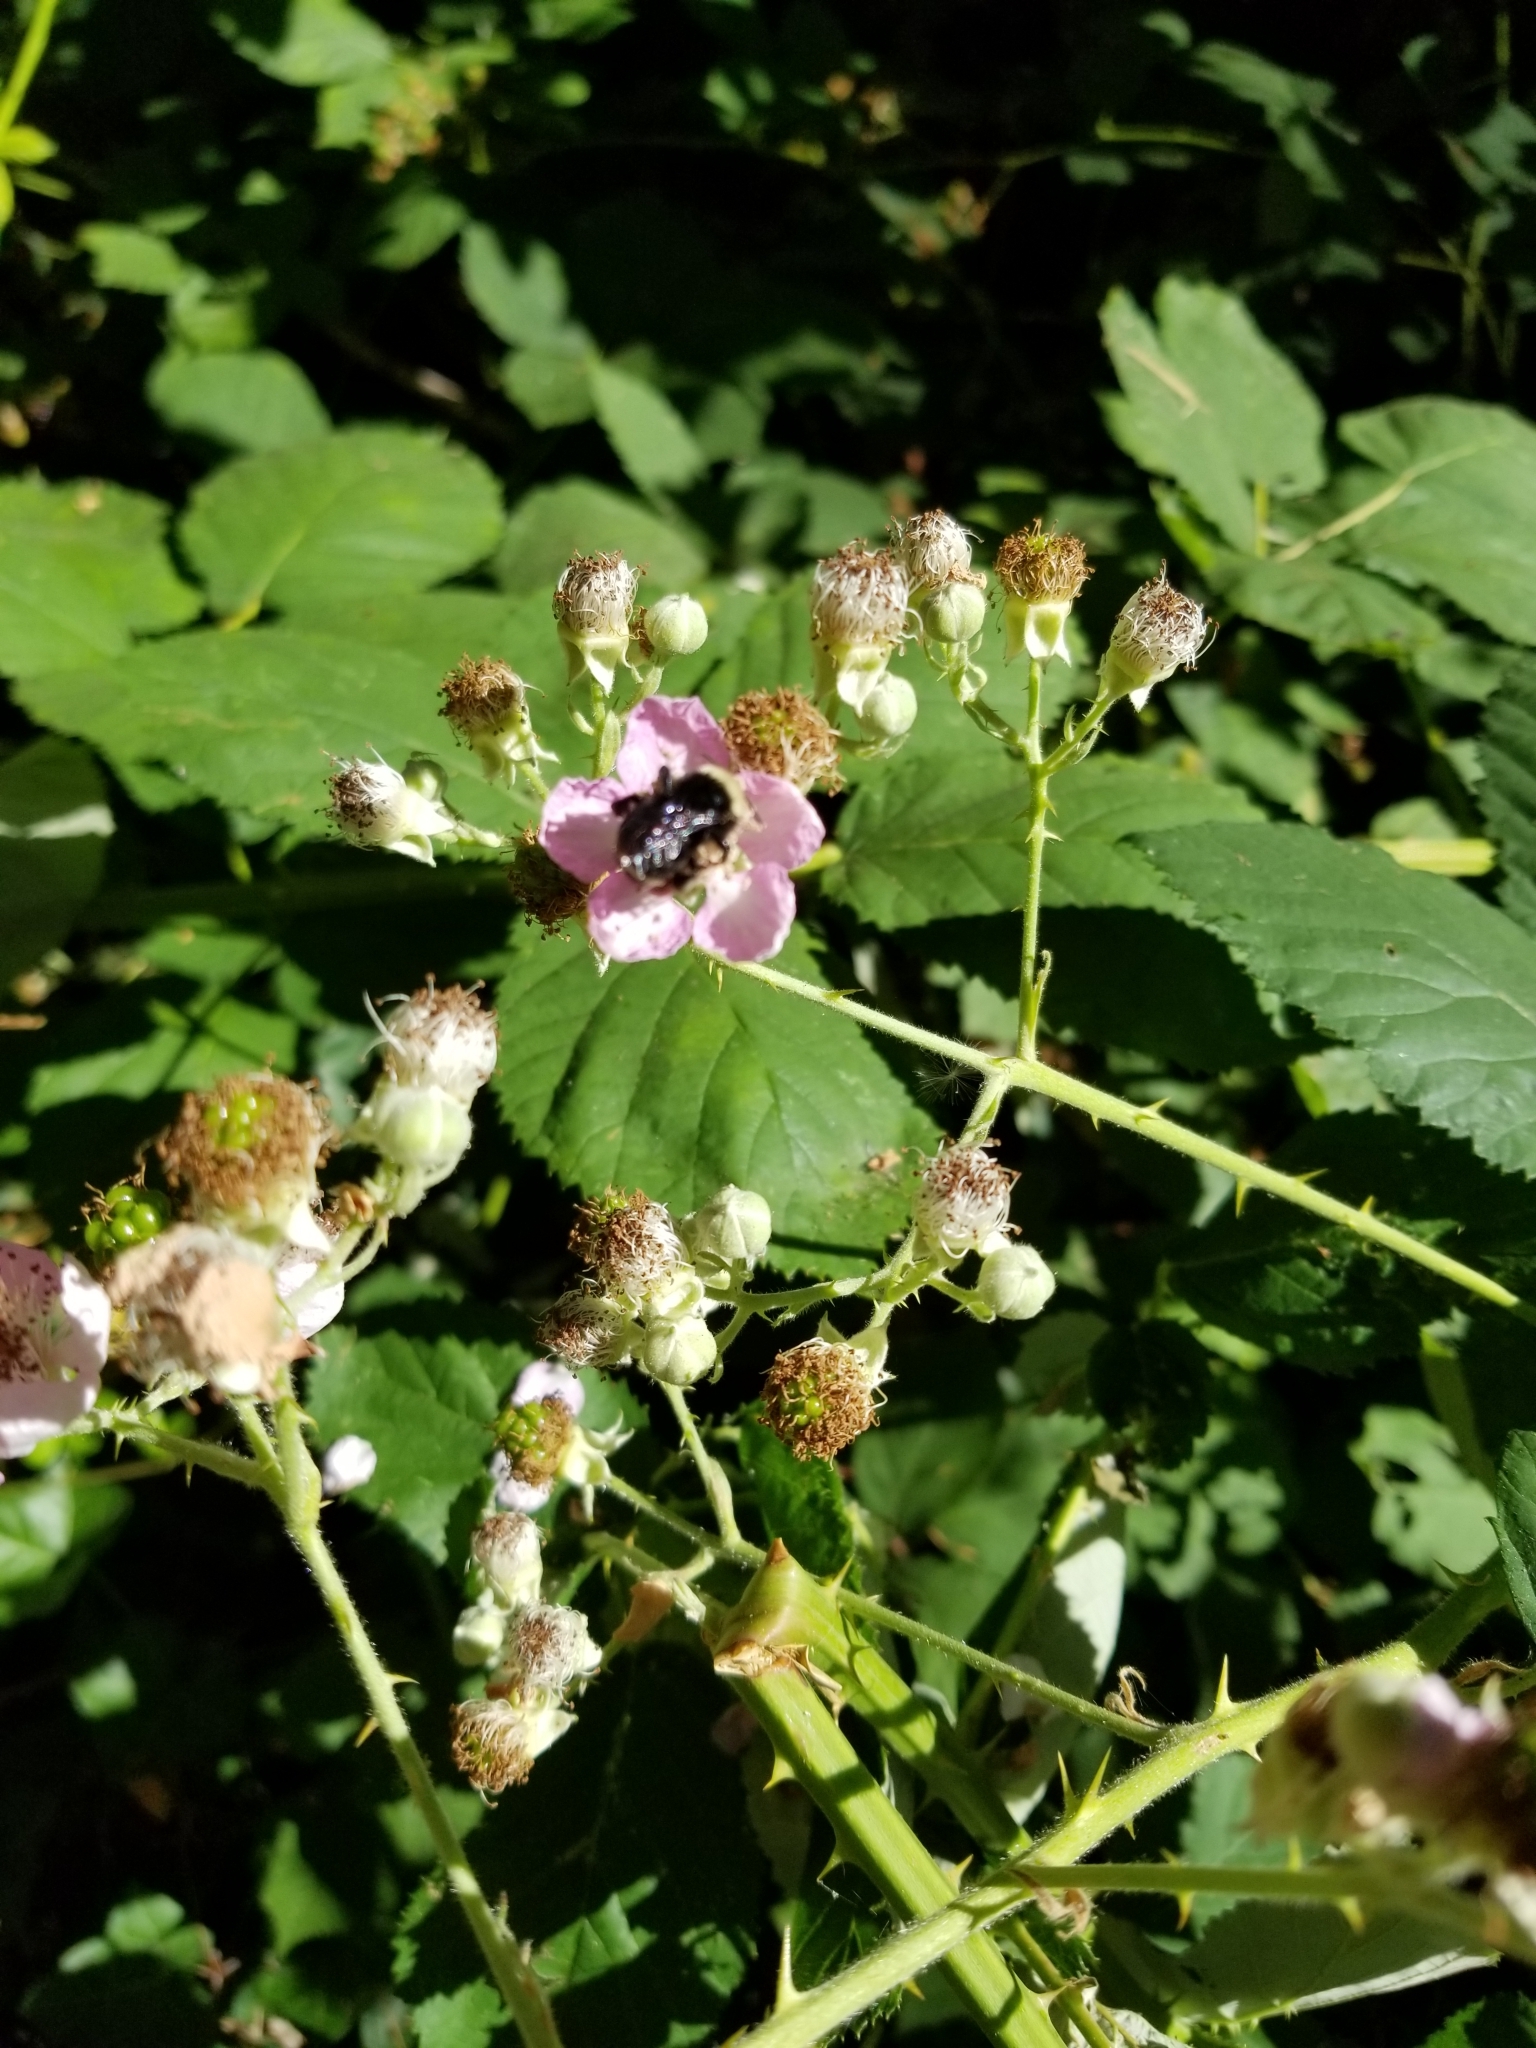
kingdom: Plantae
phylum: Tracheophyta
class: Magnoliopsida
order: Rosales
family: Rosaceae
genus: Rubus
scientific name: Rubus armeniacus
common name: Himalayan blackberry
